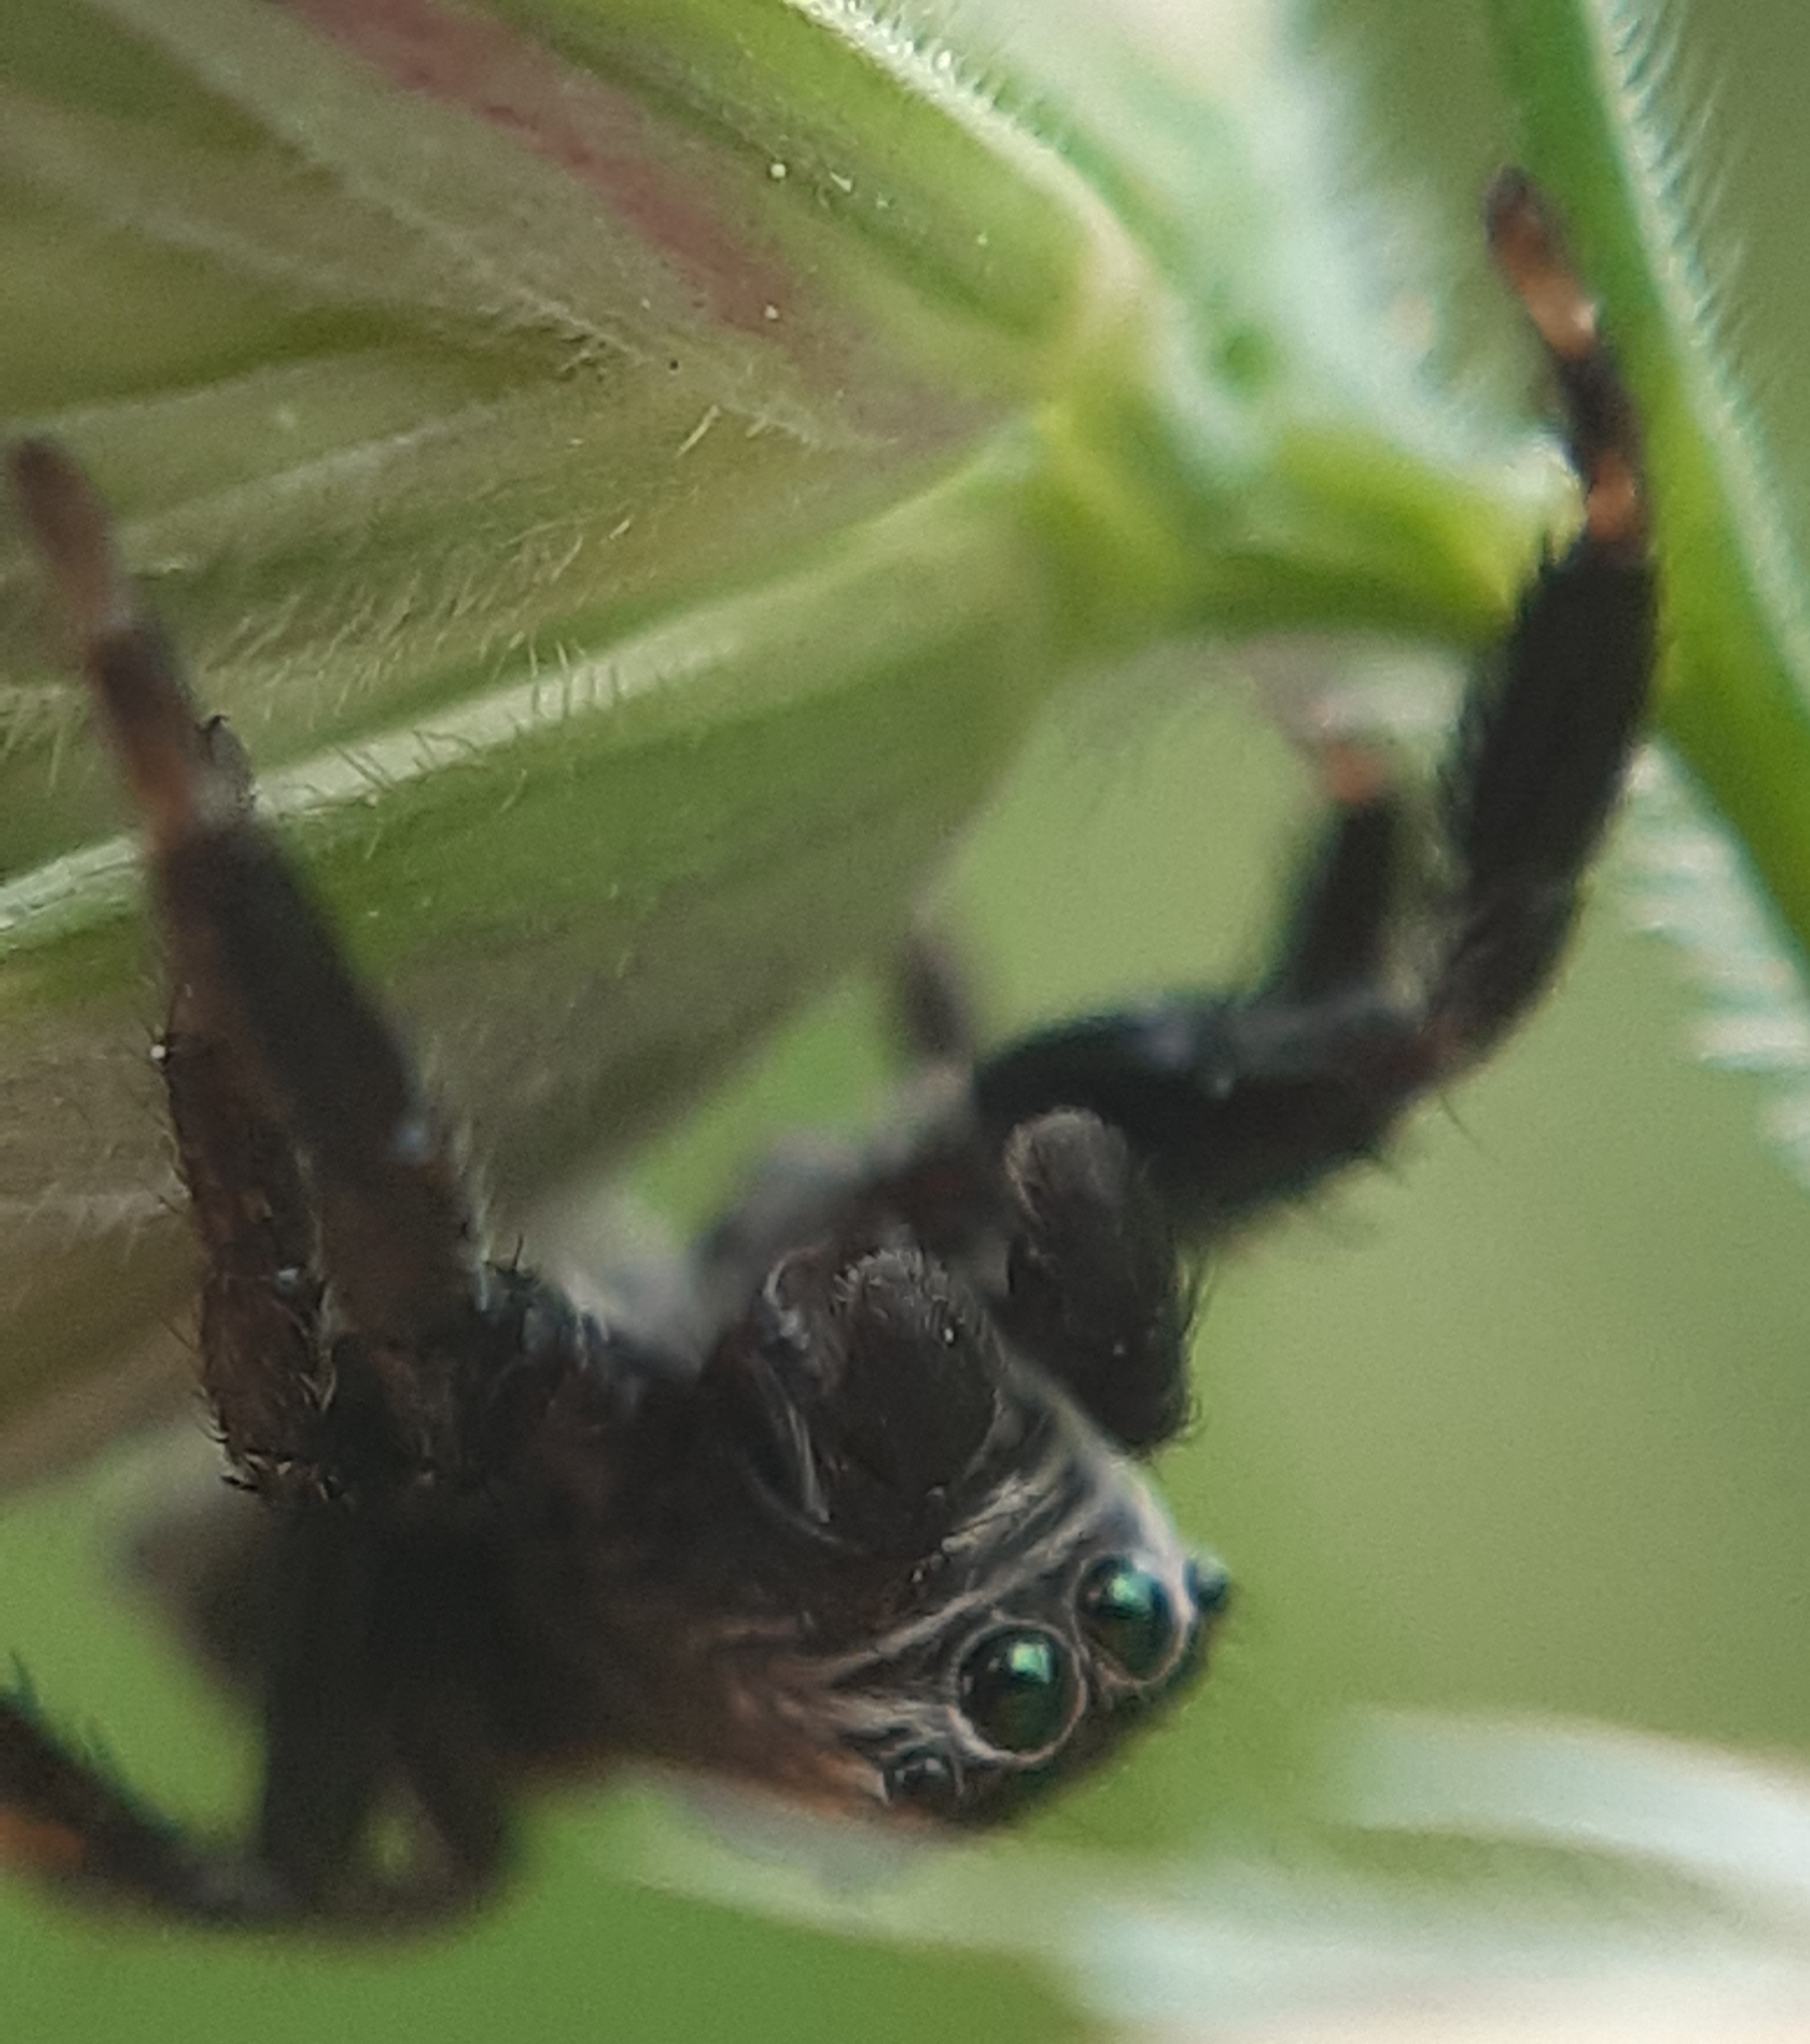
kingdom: Animalia
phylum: Arthropoda
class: Arachnida
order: Araneae
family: Salticidae
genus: Evarcha
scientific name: Evarcha arcuata
